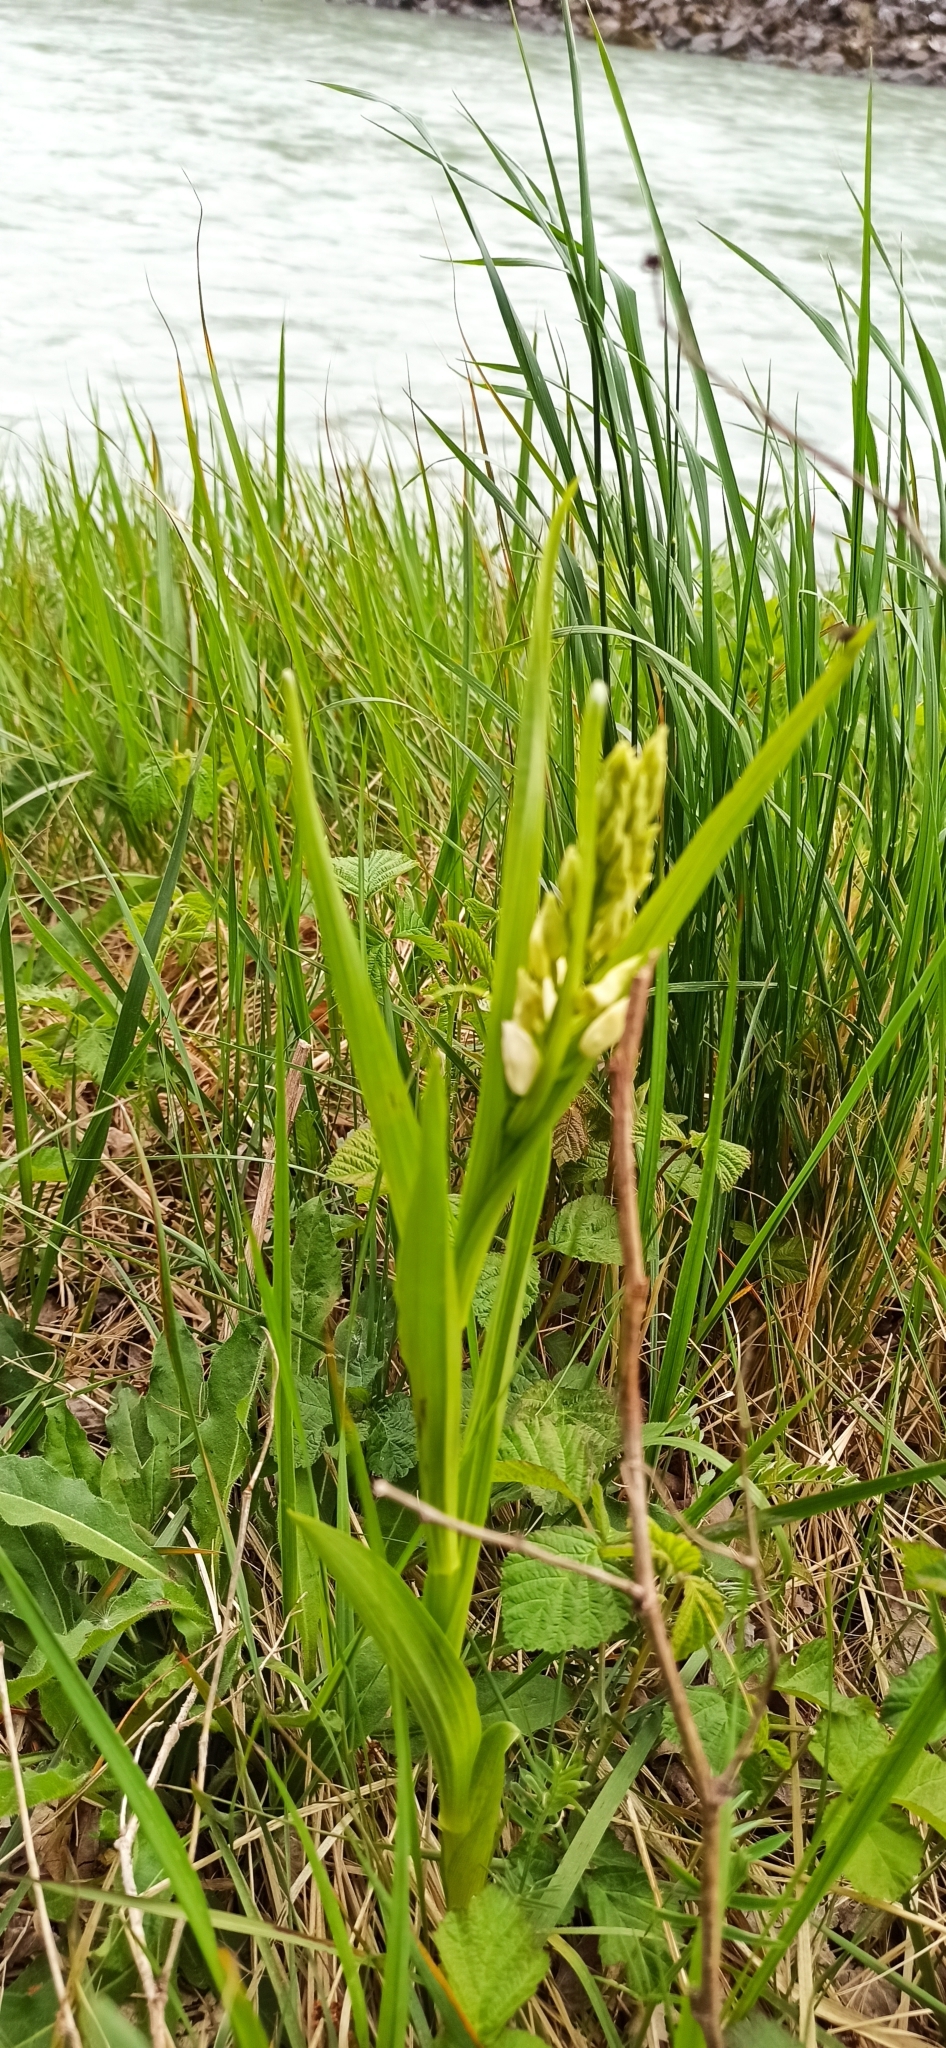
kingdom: Plantae
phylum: Tracheophyta
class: Liliopsida
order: Asparagales
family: Orchidaceae
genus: Cephalanthera
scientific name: Cephalanthera longifolia
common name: Narrow-leaved helleborine
